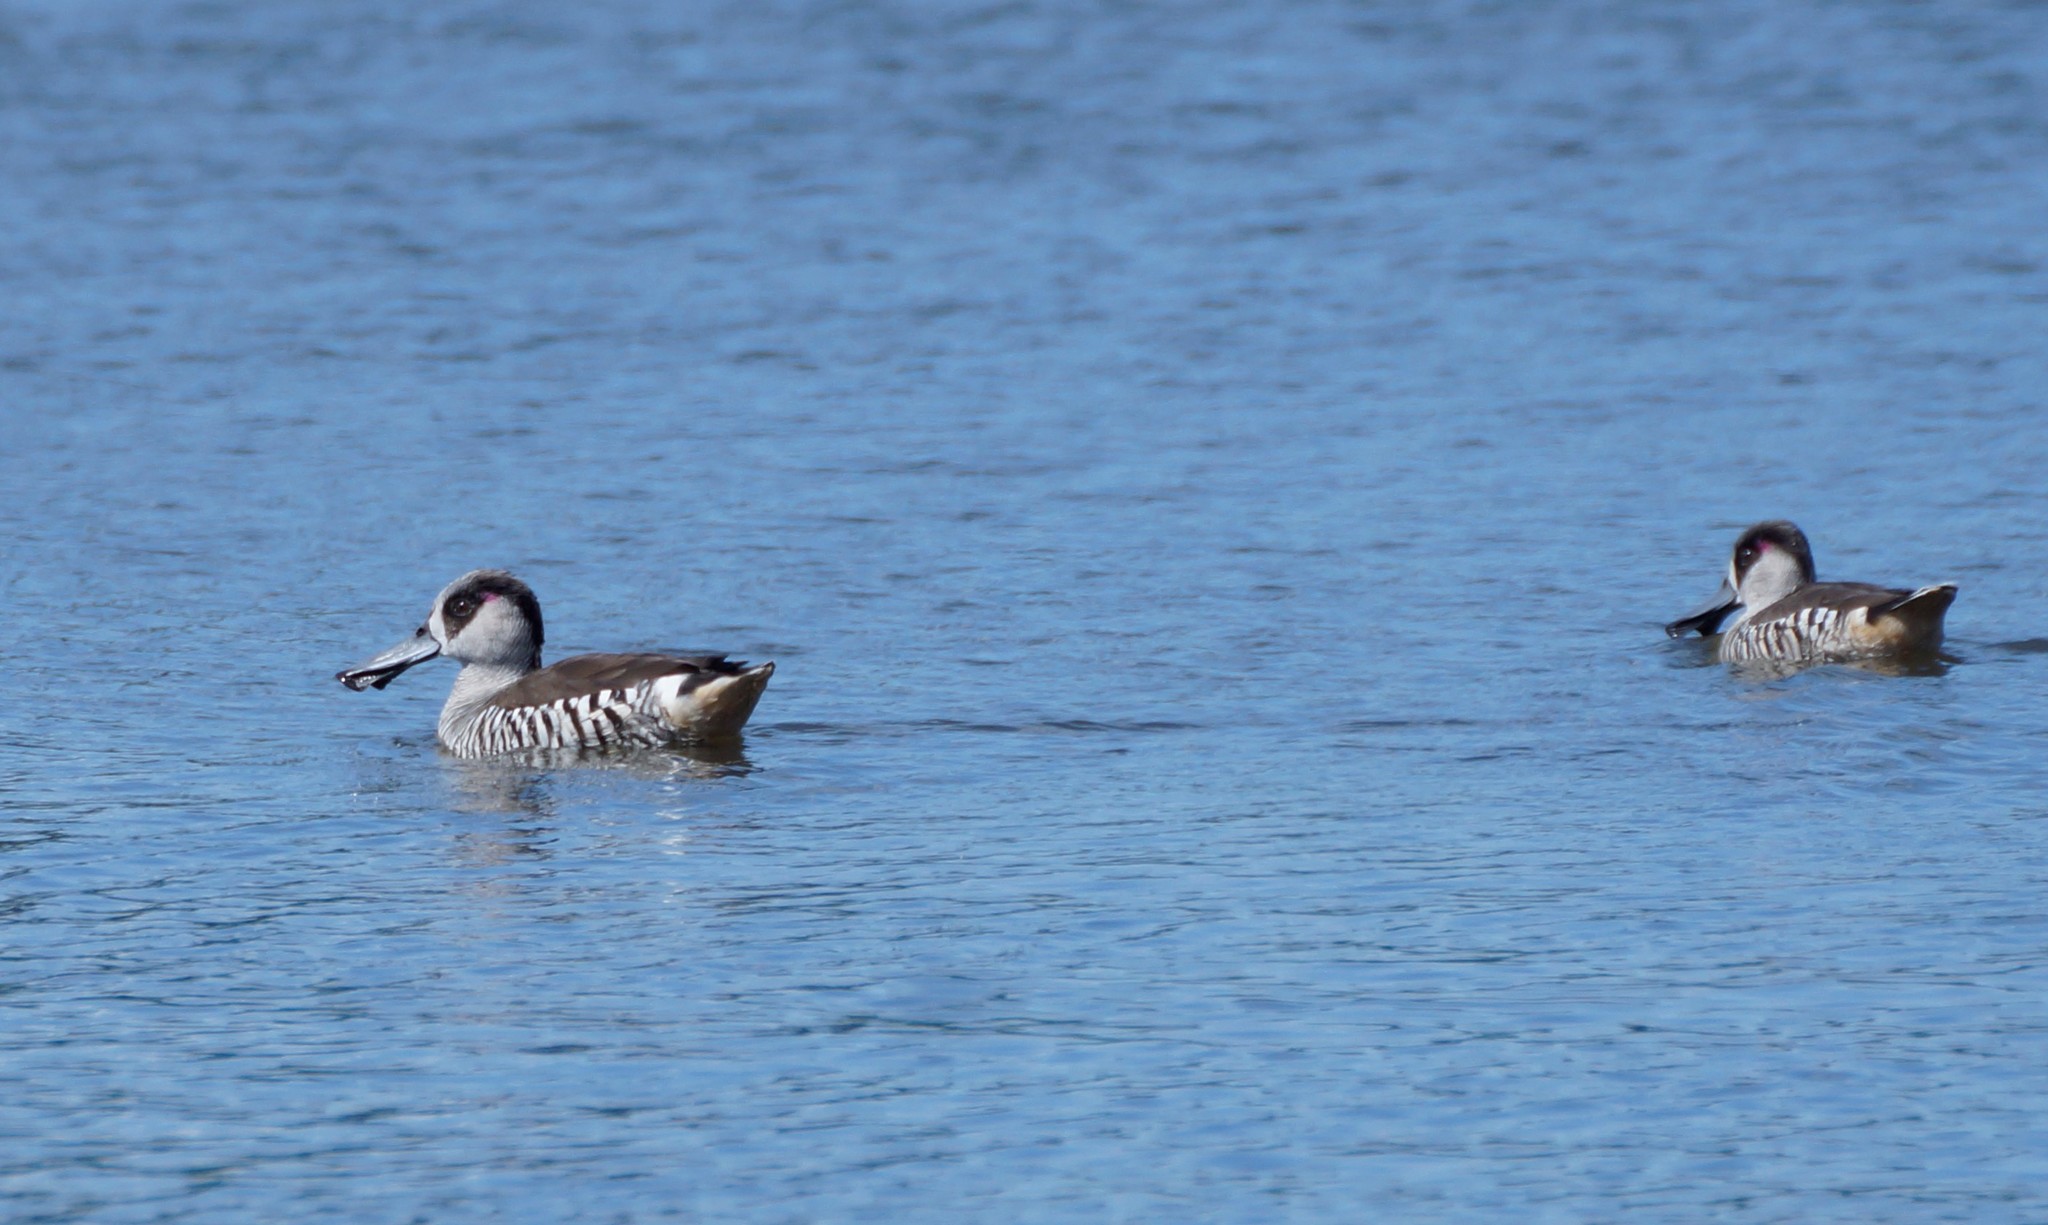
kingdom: Animalia
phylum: Chordata
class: Aves
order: Anseriformes
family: Anatidae
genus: Malacorhynchus
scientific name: Malacorhynchus membranaceus
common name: Pink-eared duck
